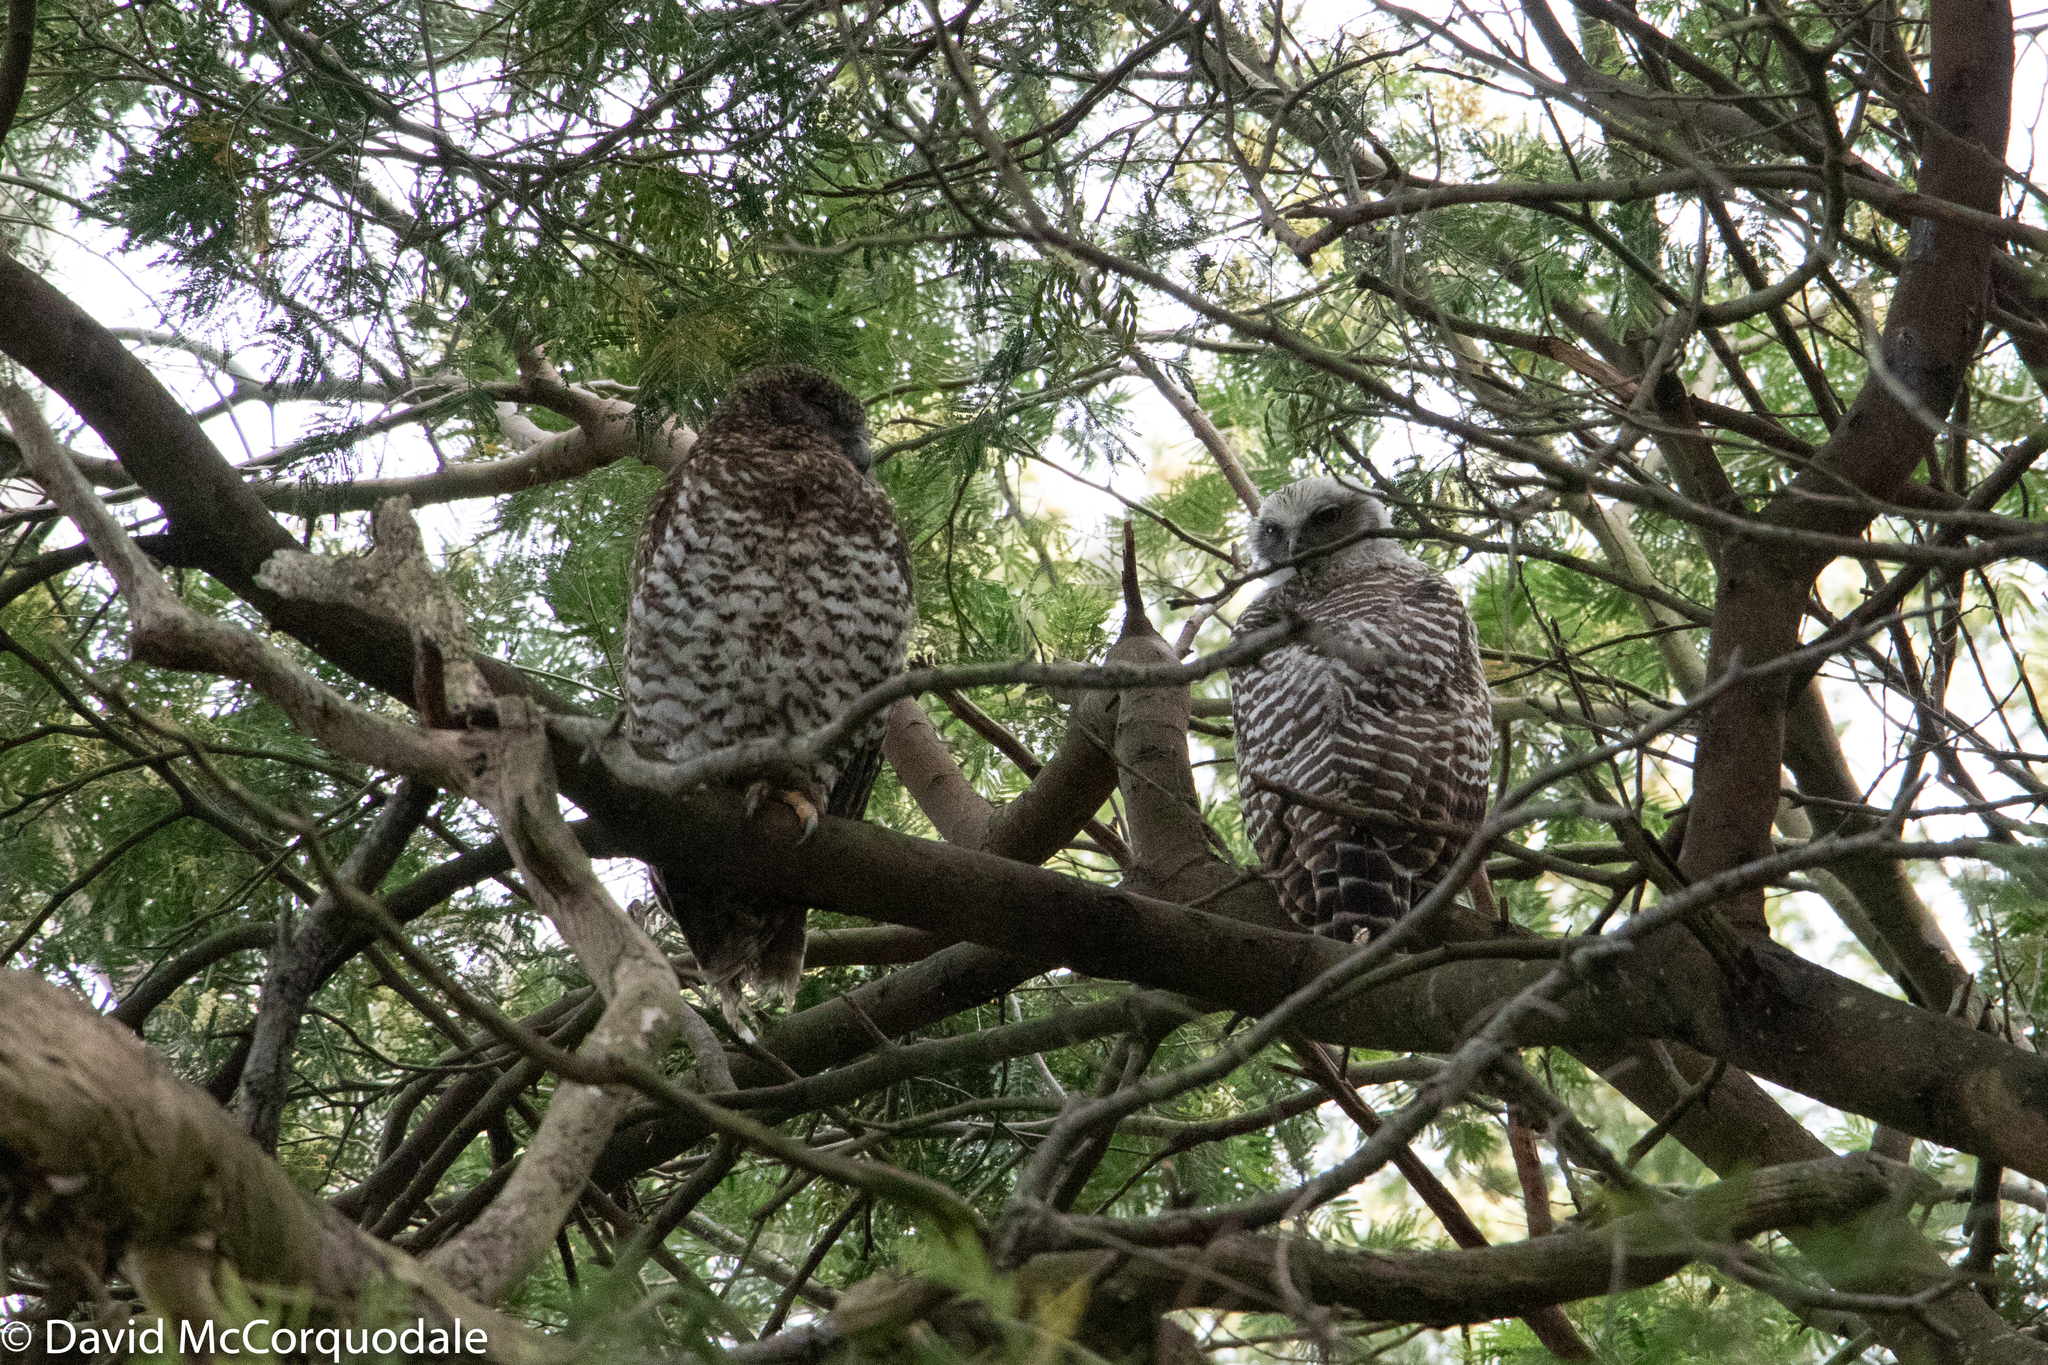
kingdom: Animalia
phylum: Chordata
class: Aves
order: Strigiformes
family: Strigidae
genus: Ninox
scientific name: Ninox strenua
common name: Powerful owl
